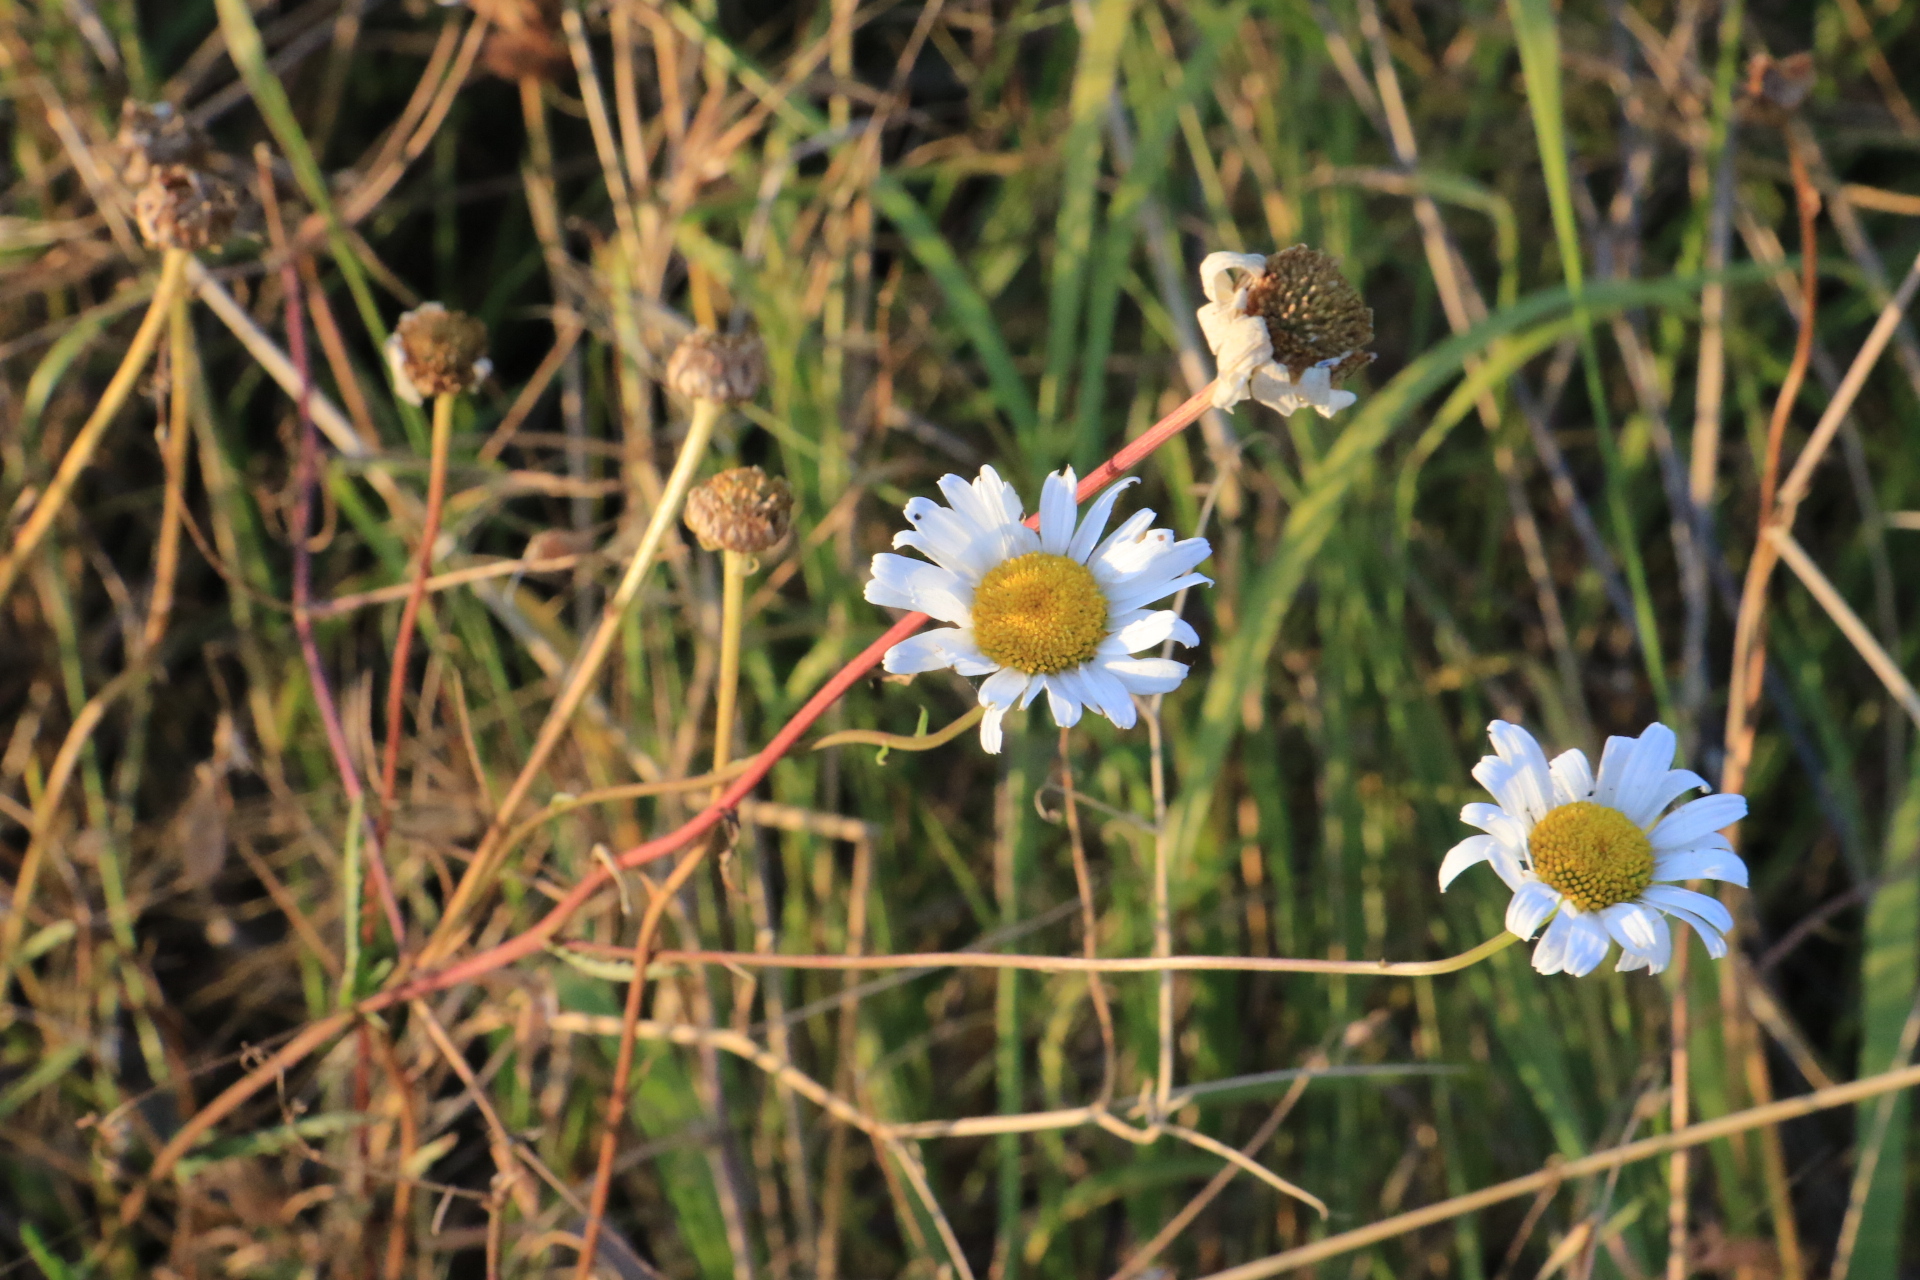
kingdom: Plantae
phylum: Tracheophyta
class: Magnoliopsida
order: Asterales
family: Asteraceae
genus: Leucanthemum
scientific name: Leucanthemum vulgare
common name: Oxeye daisy
